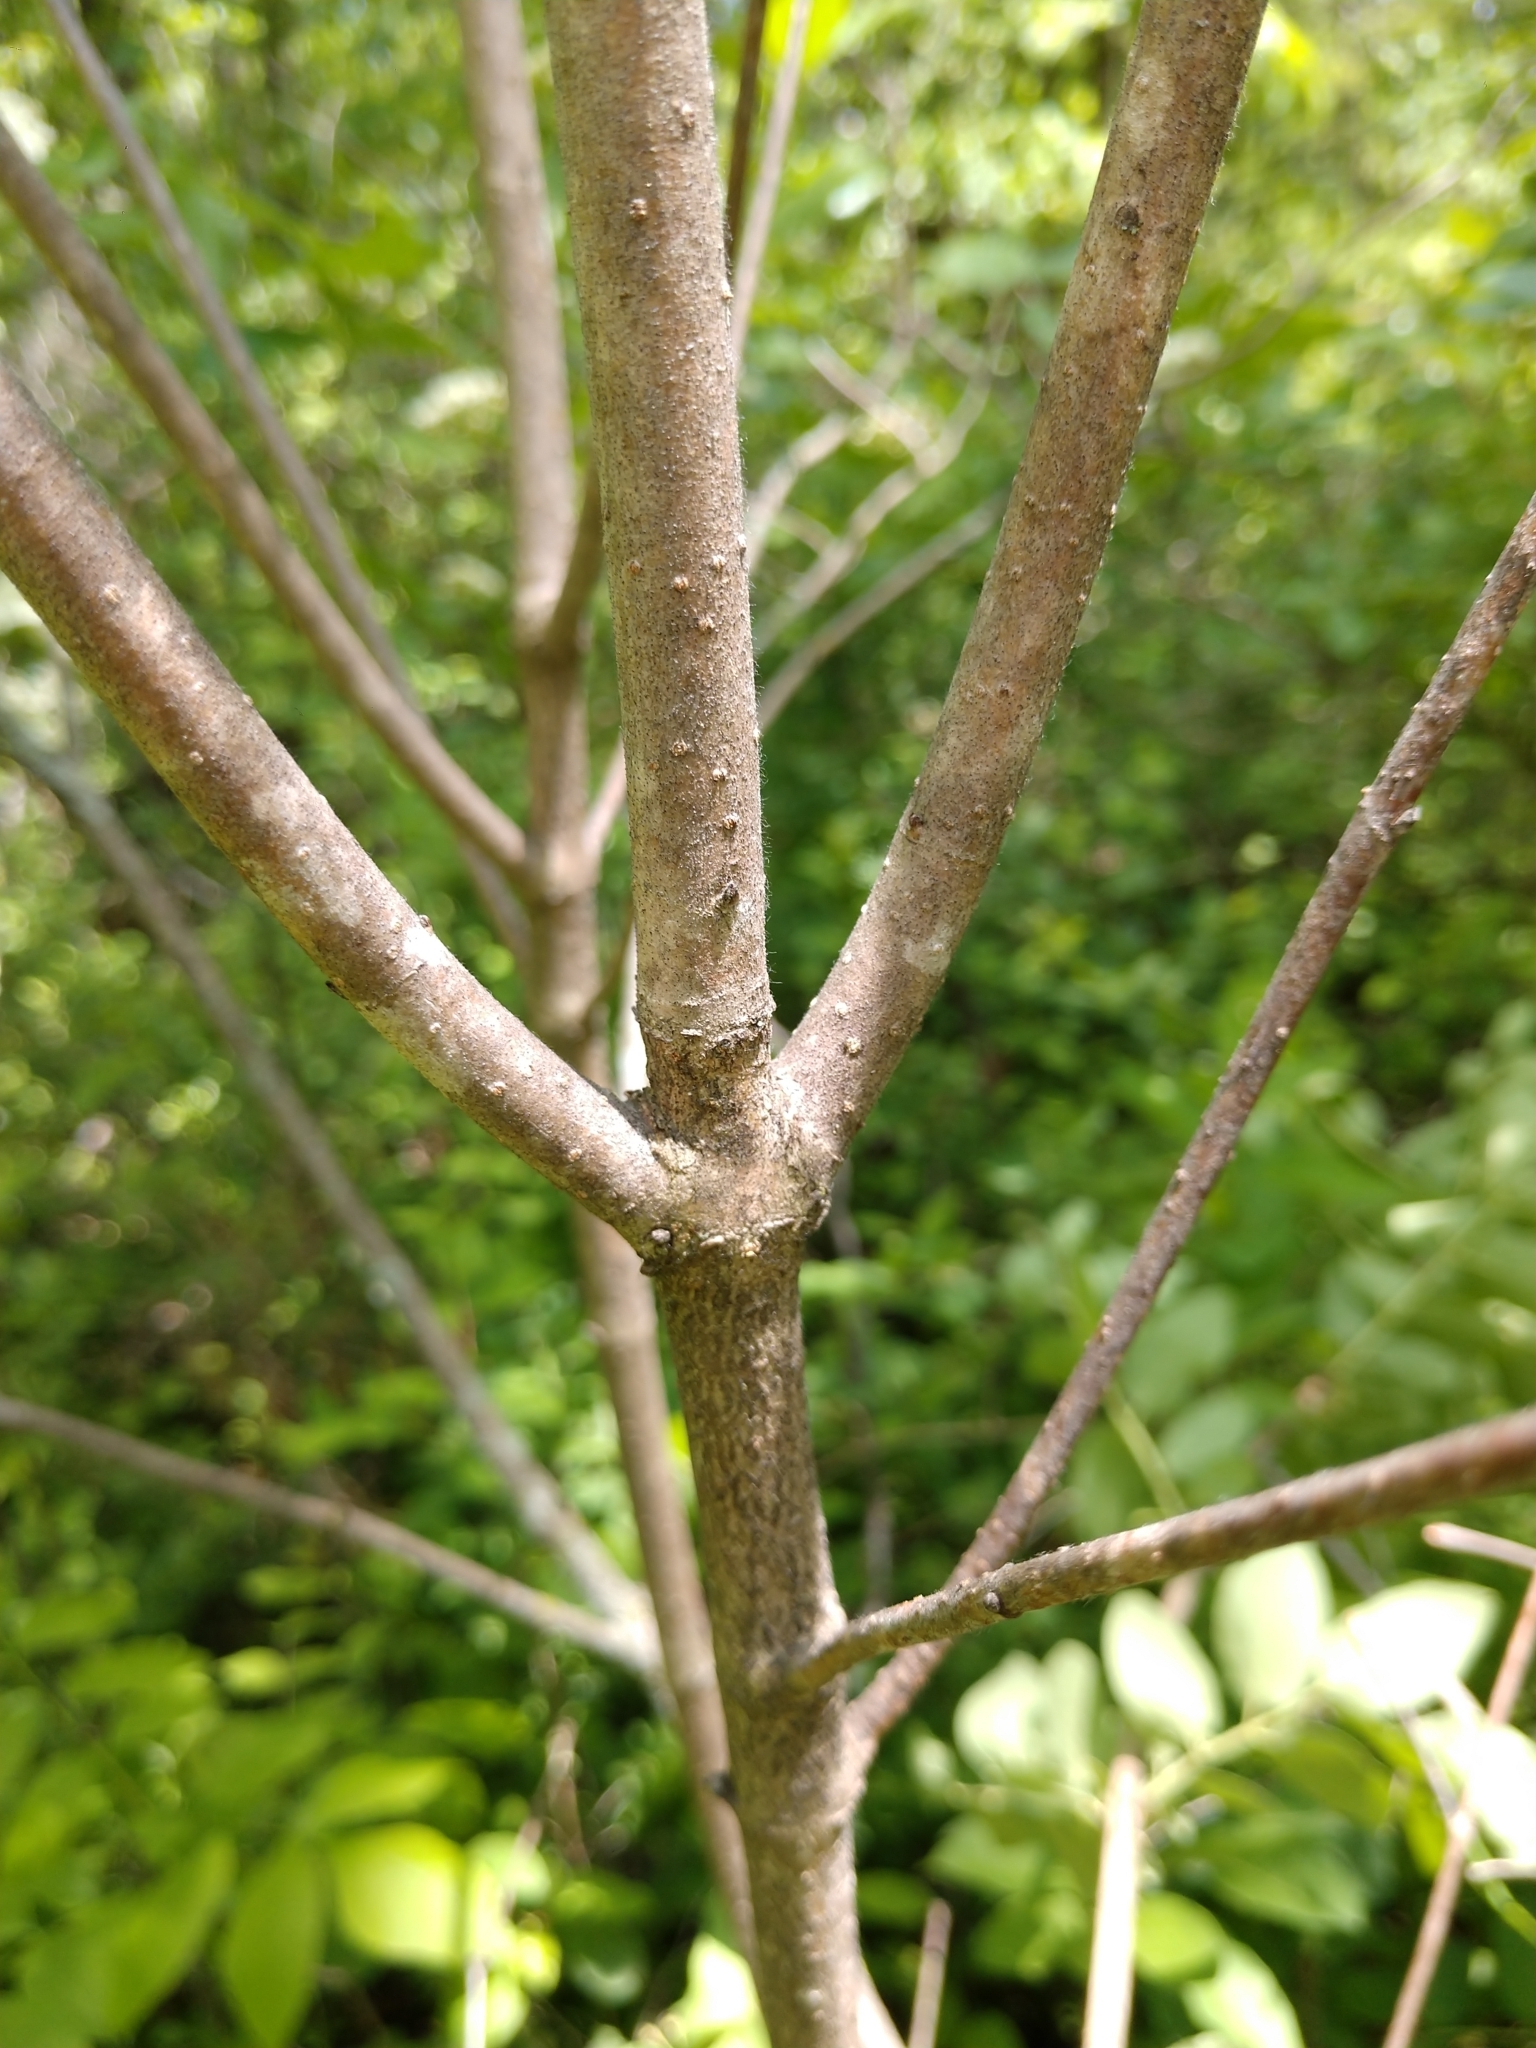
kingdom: Plantae
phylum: Tracheophyta
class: Magnoliopsida
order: Dipsacales
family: Viburnaceae
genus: Viburnum
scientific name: Viburnum rafinesqueanum
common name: Downy arrow-wood
